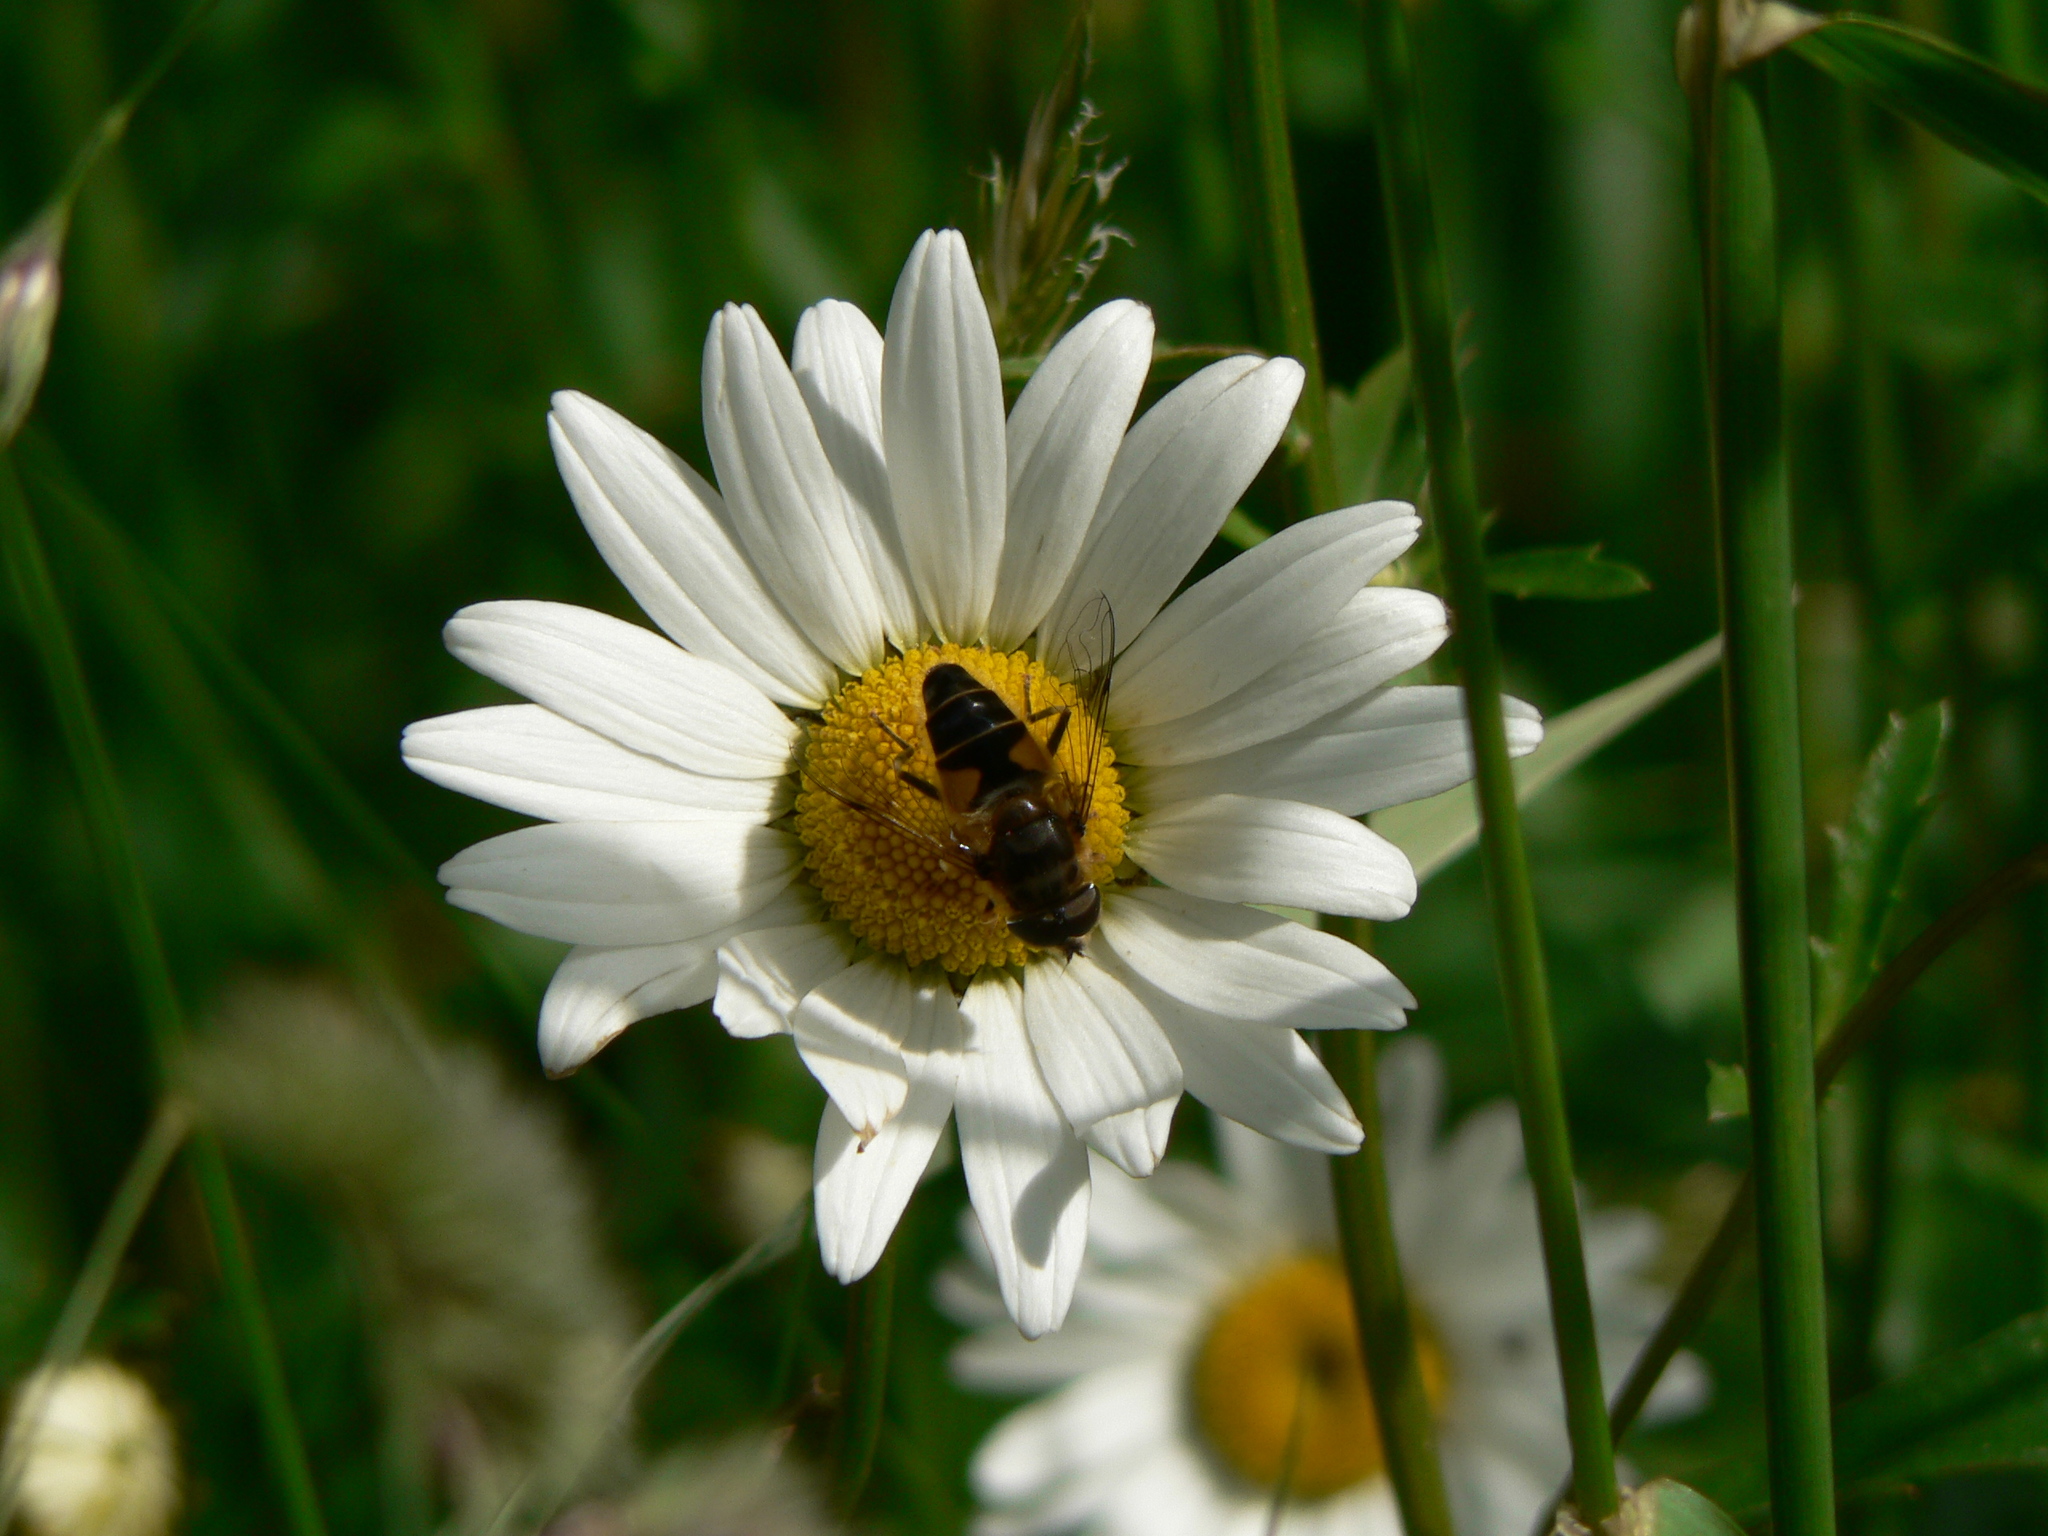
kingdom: Animalia
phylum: Arthropoda
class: Insecta
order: Diptera
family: Syrphidae
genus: Eristalis
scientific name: Eristalis pertinax
